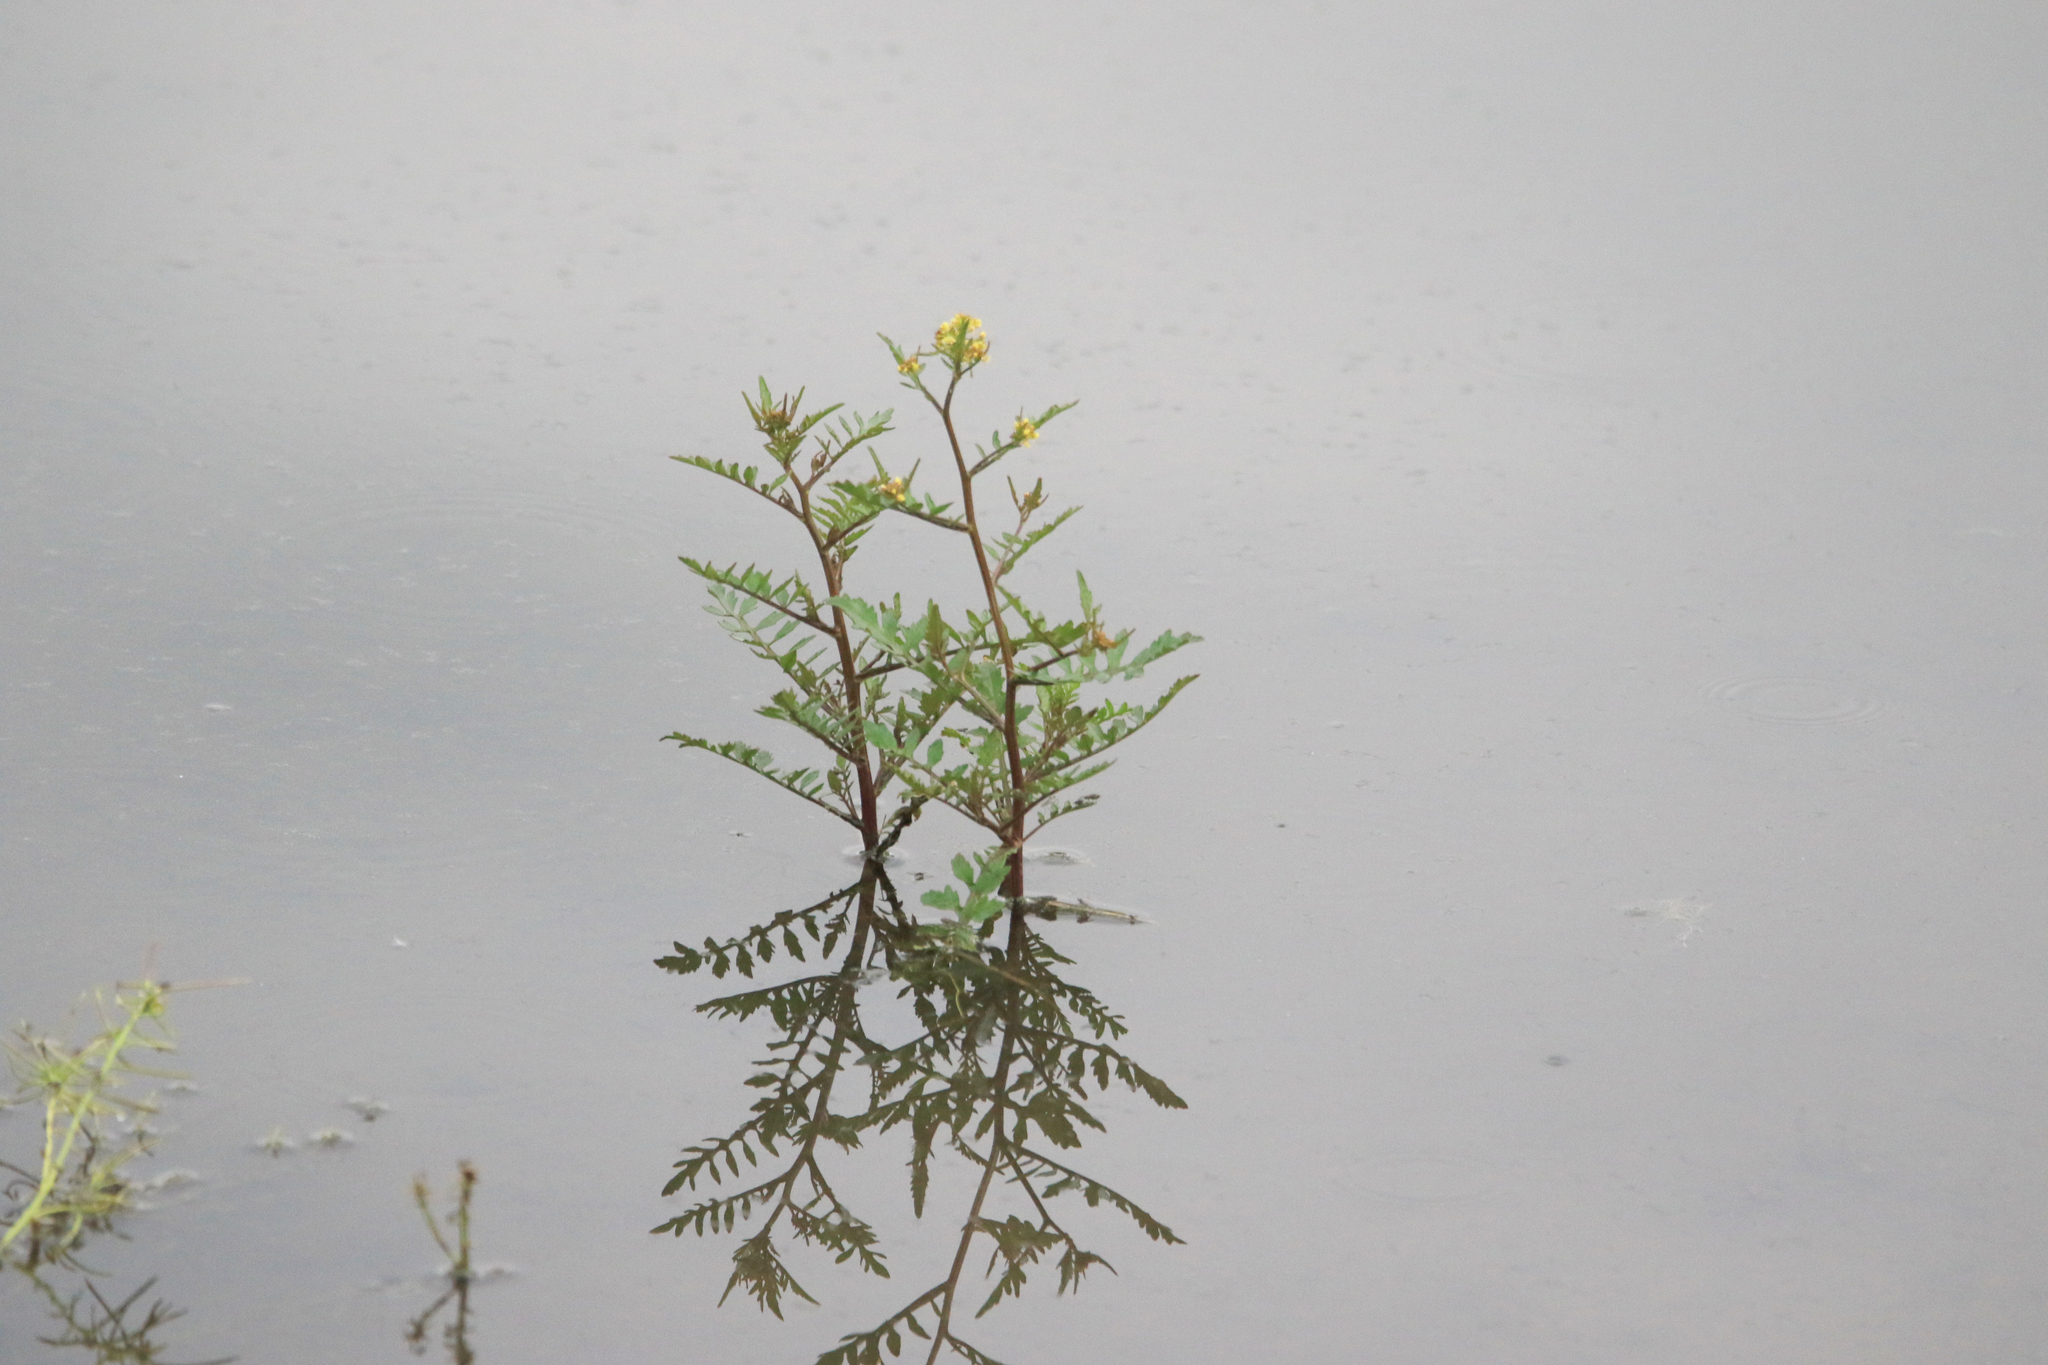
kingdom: Plantae
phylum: Tracheophyta
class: Magnoliopsida
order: Brassicales
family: Brassicaceae
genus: Rorippa
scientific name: Rorippa palustris
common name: Marsh yellow-cress
